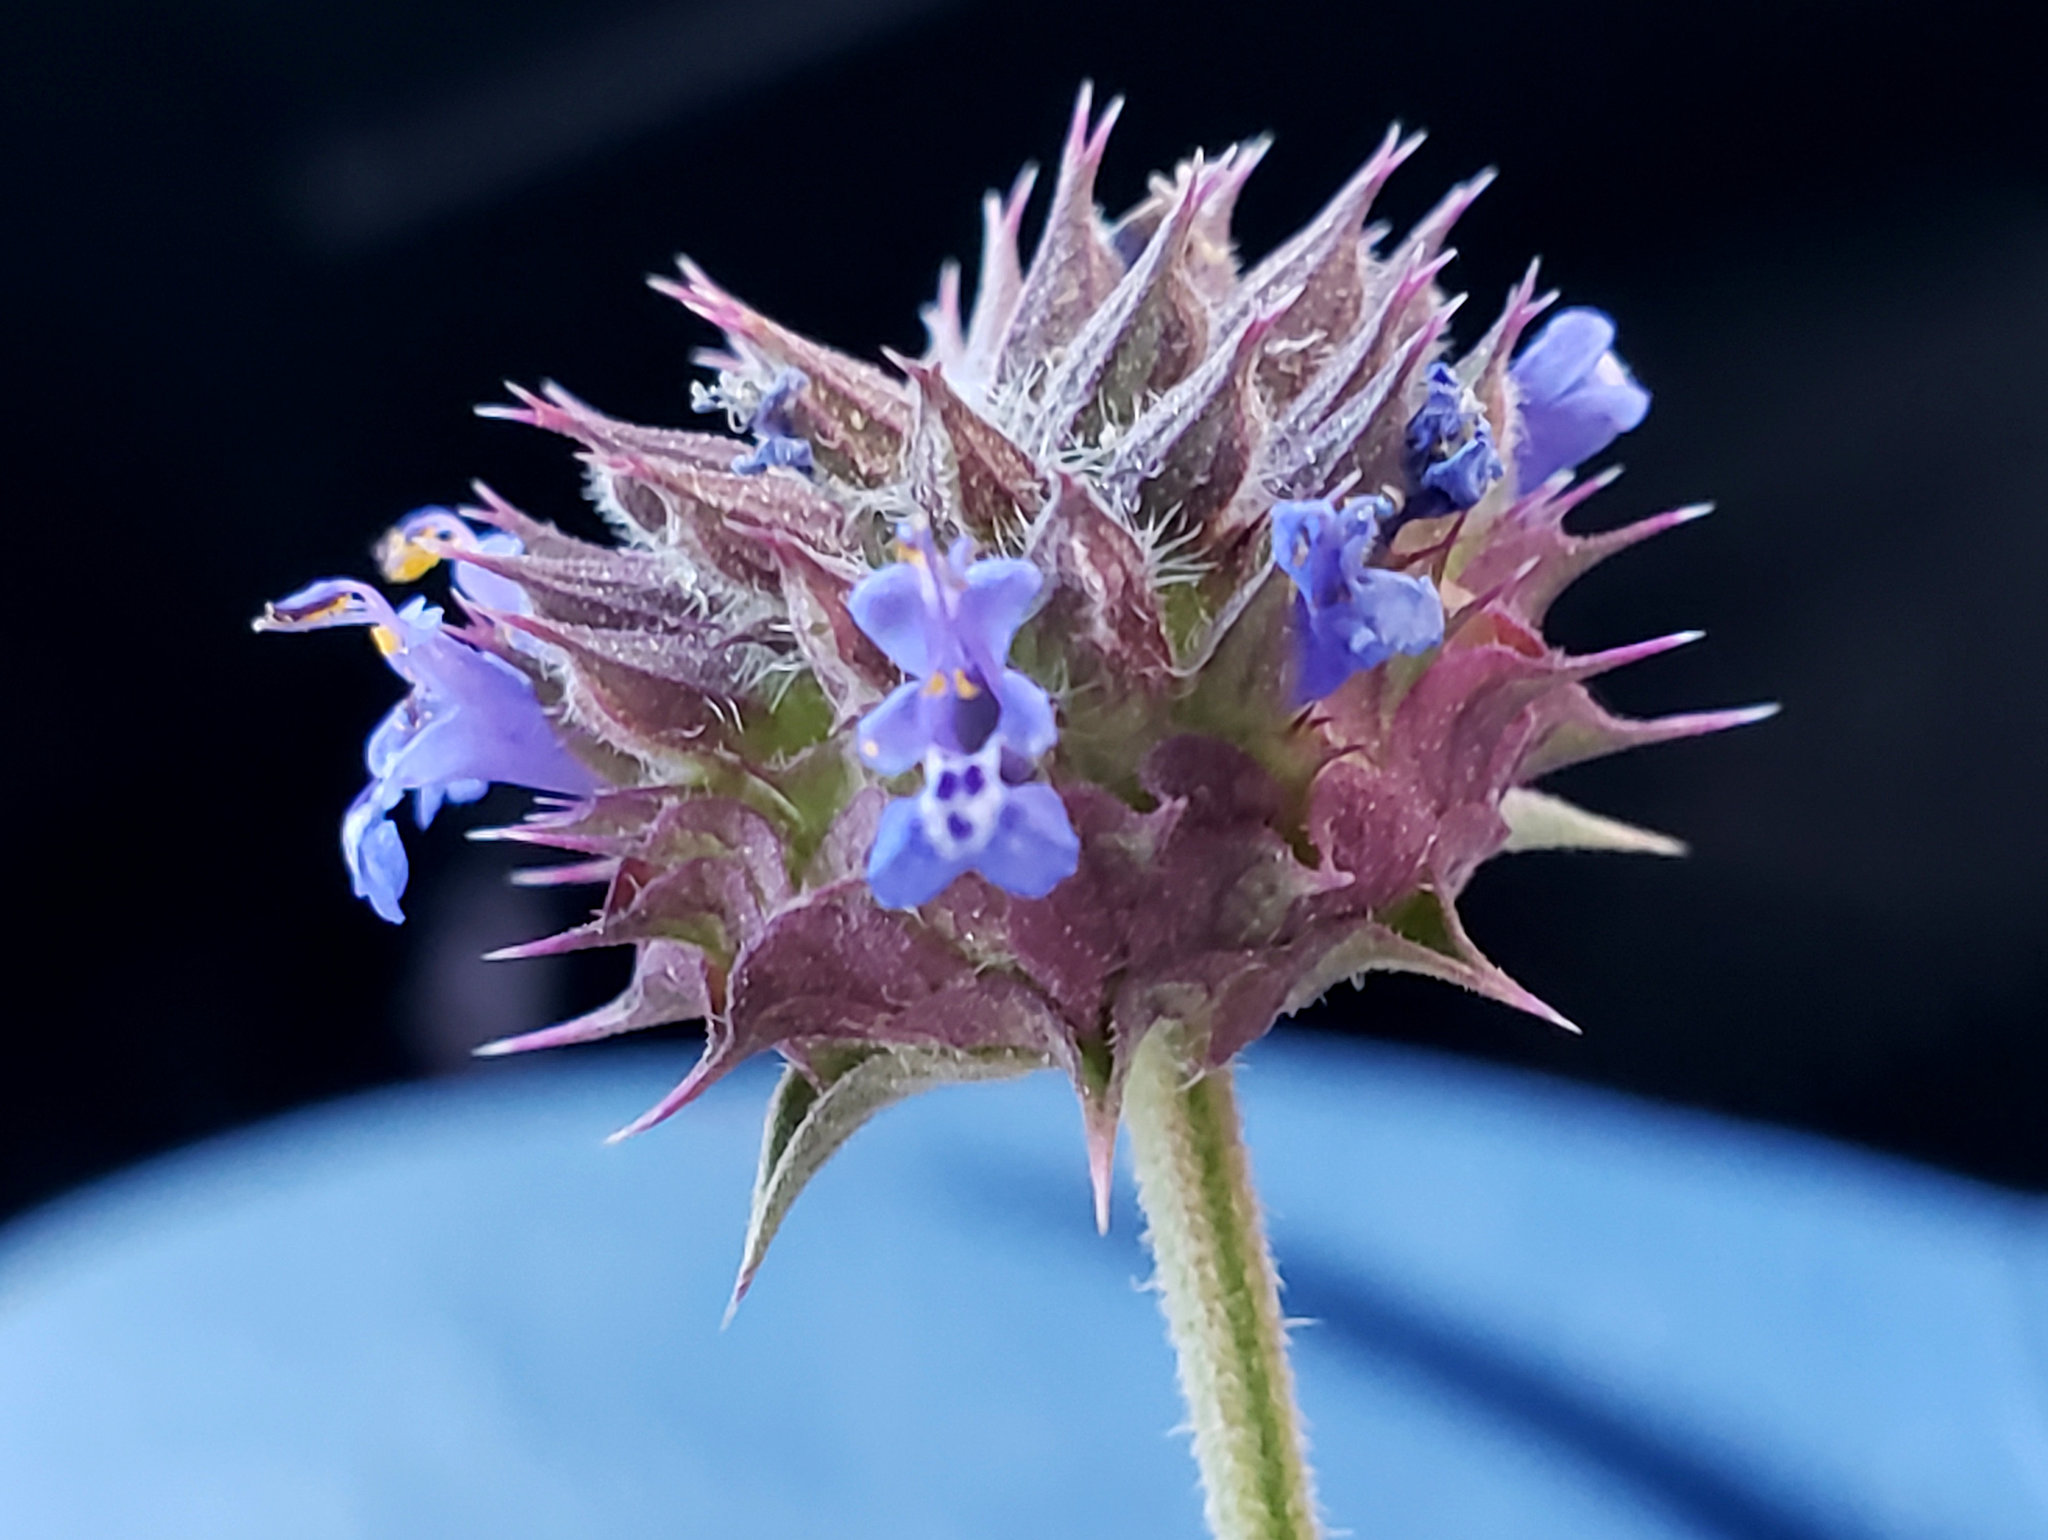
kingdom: Plantae
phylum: Tracheophyta
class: Magnoliopsida
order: Lamiales
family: Lamiaceae
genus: Salvia
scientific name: Salvia columbariae
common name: Chia
